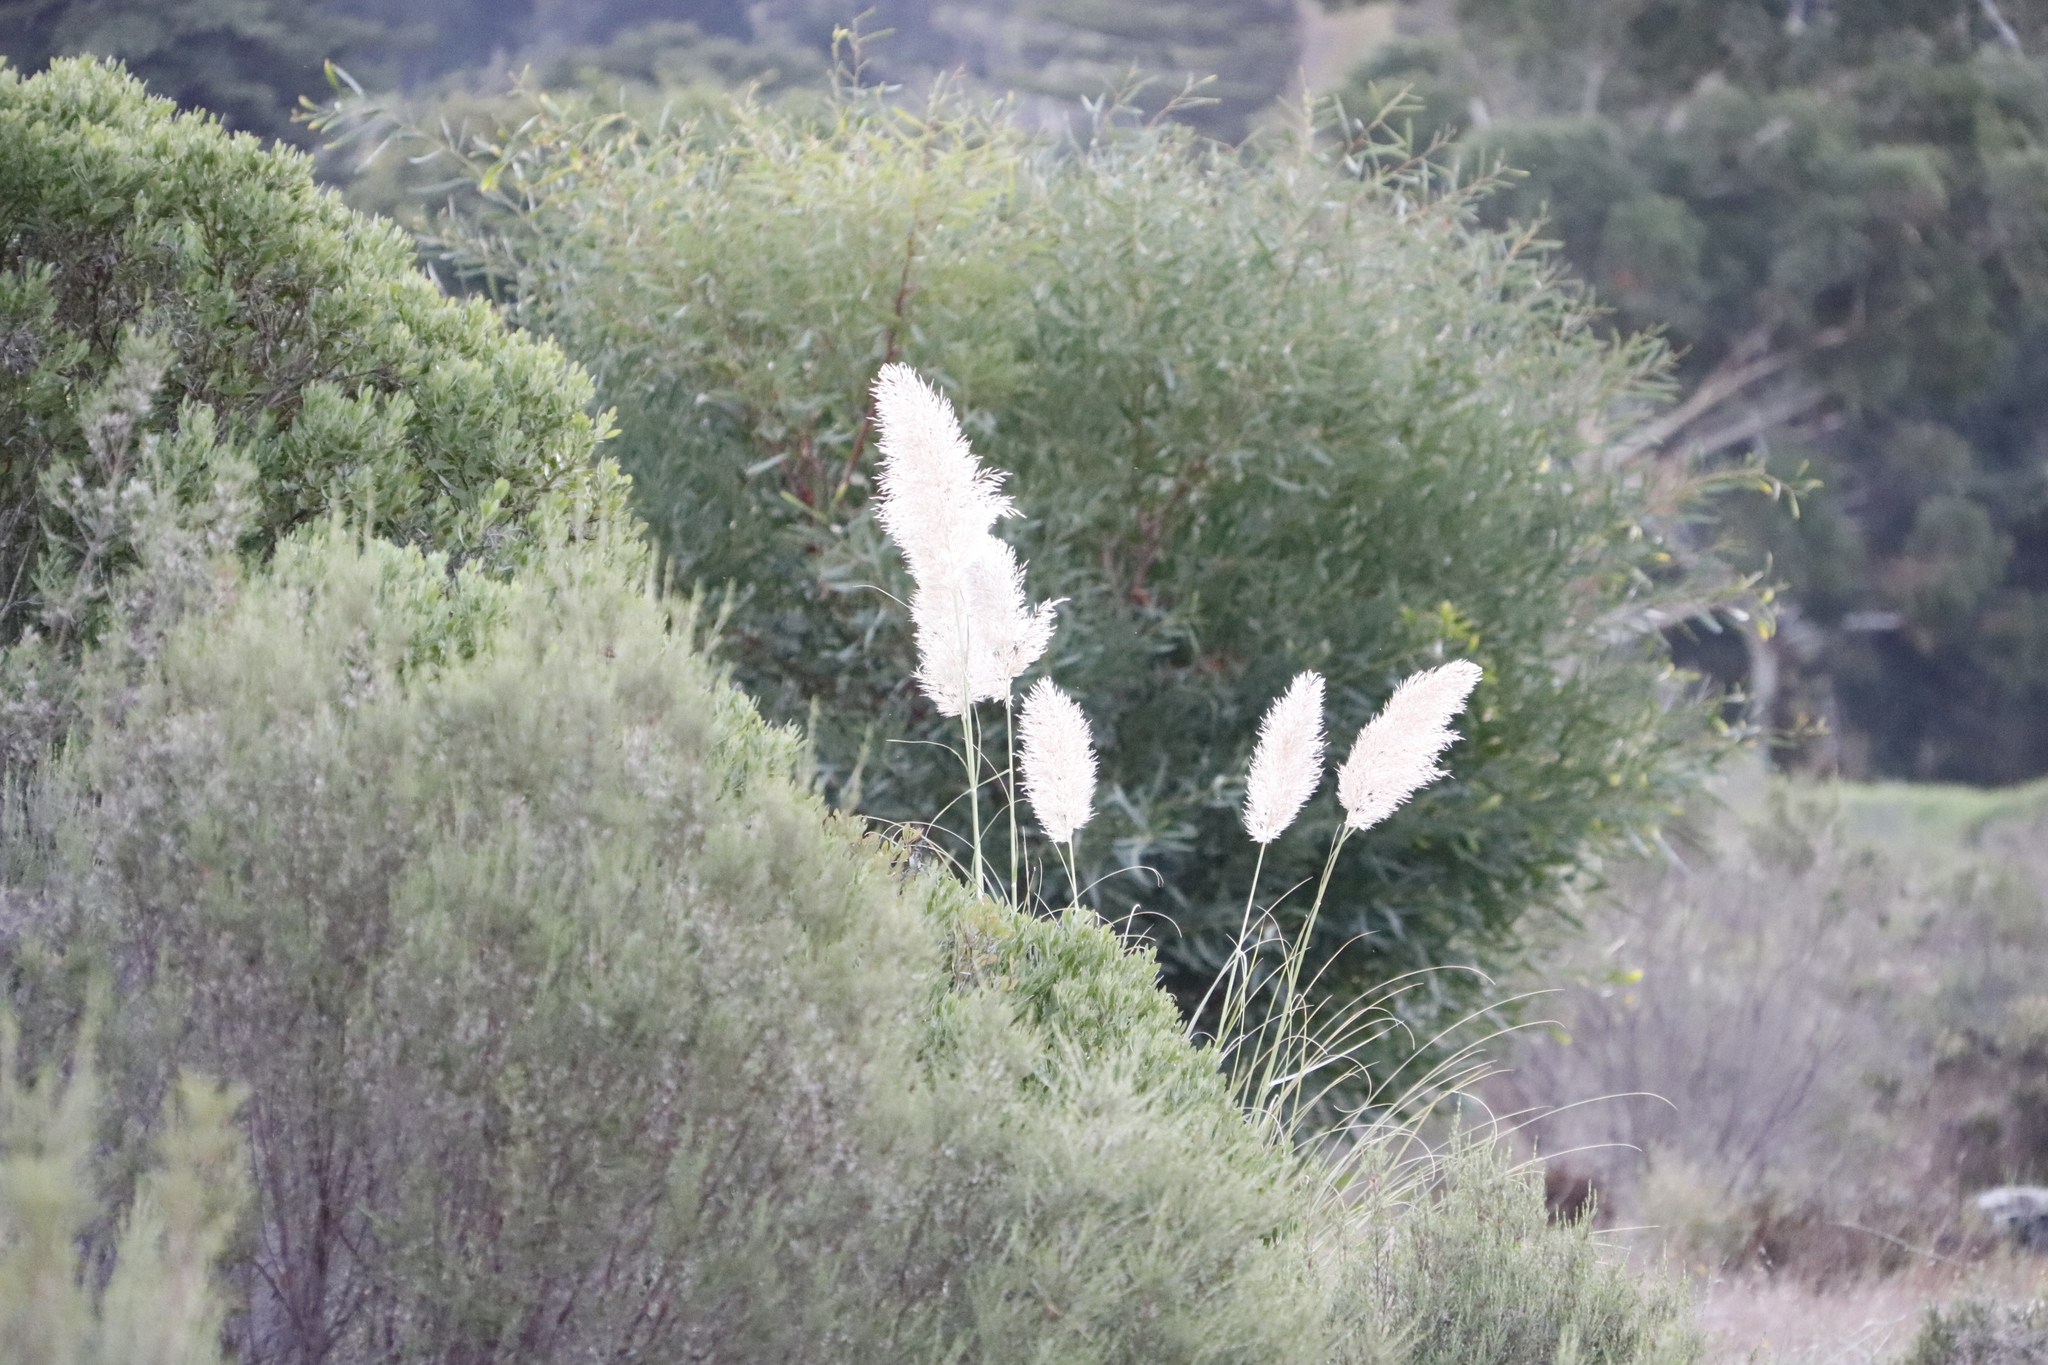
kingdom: Plantae
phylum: Tracheophyta
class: Liliopsida
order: Poales
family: Poaceae
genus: Cortaderia
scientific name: Cortaderia selloana
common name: Uruguayan pampas grass
